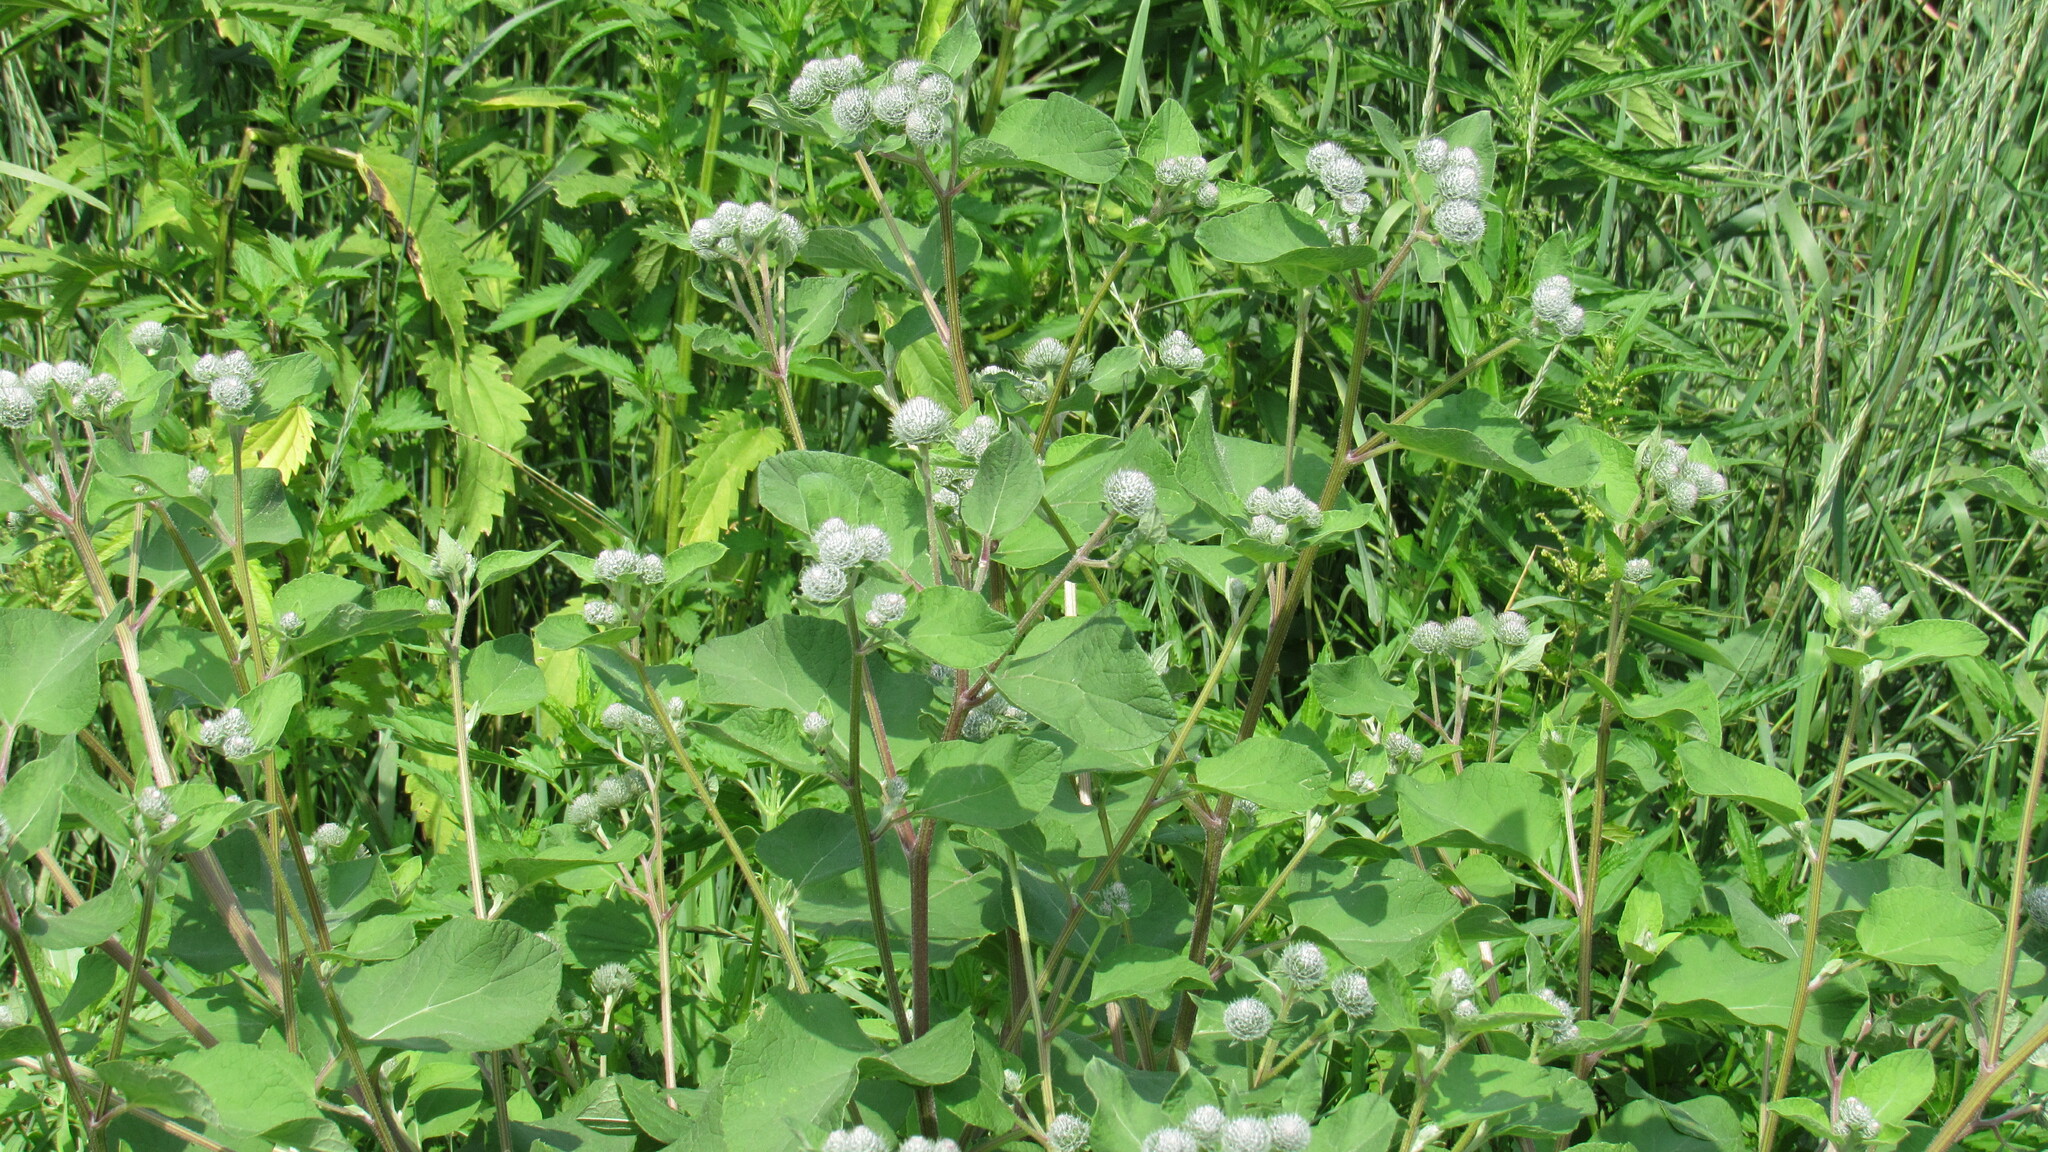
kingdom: Plantae
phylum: Tracheophyta
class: Magnoliopsida
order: Asterales
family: Asteraceae
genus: Arctium
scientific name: Arctium tomentosum
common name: Woolly burdock
